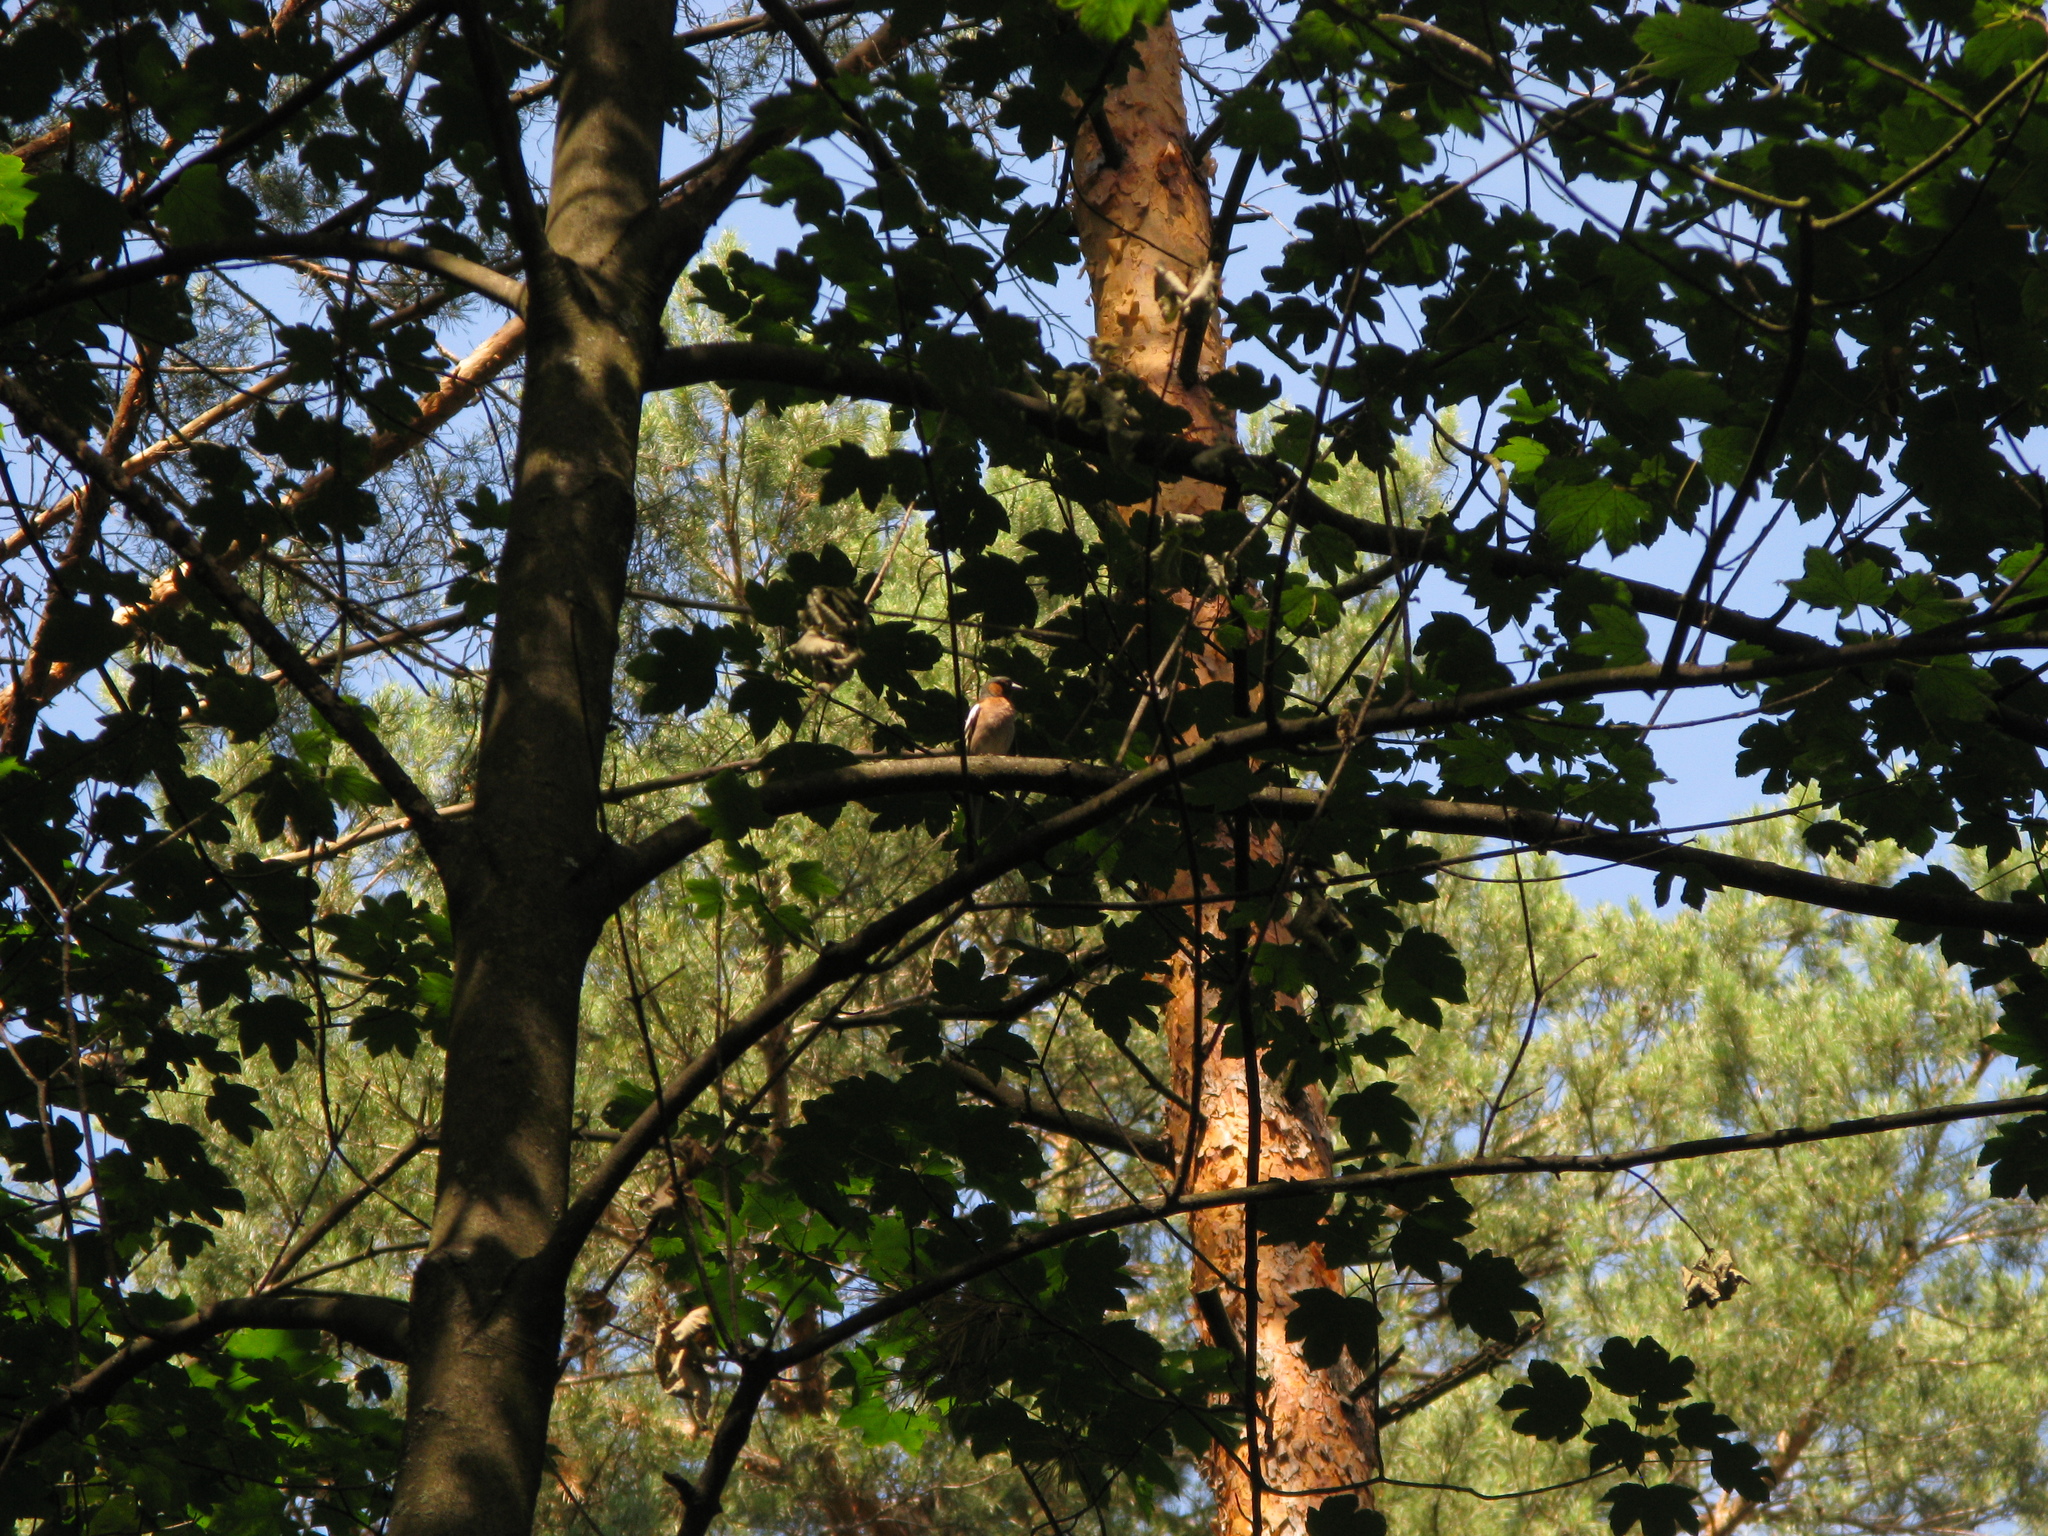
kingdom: Animalia
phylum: Chordata
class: Aves
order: Passeriformes
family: Fringillidae
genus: Fringilla
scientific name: Fringilla coelebs
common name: Common chaffinch
